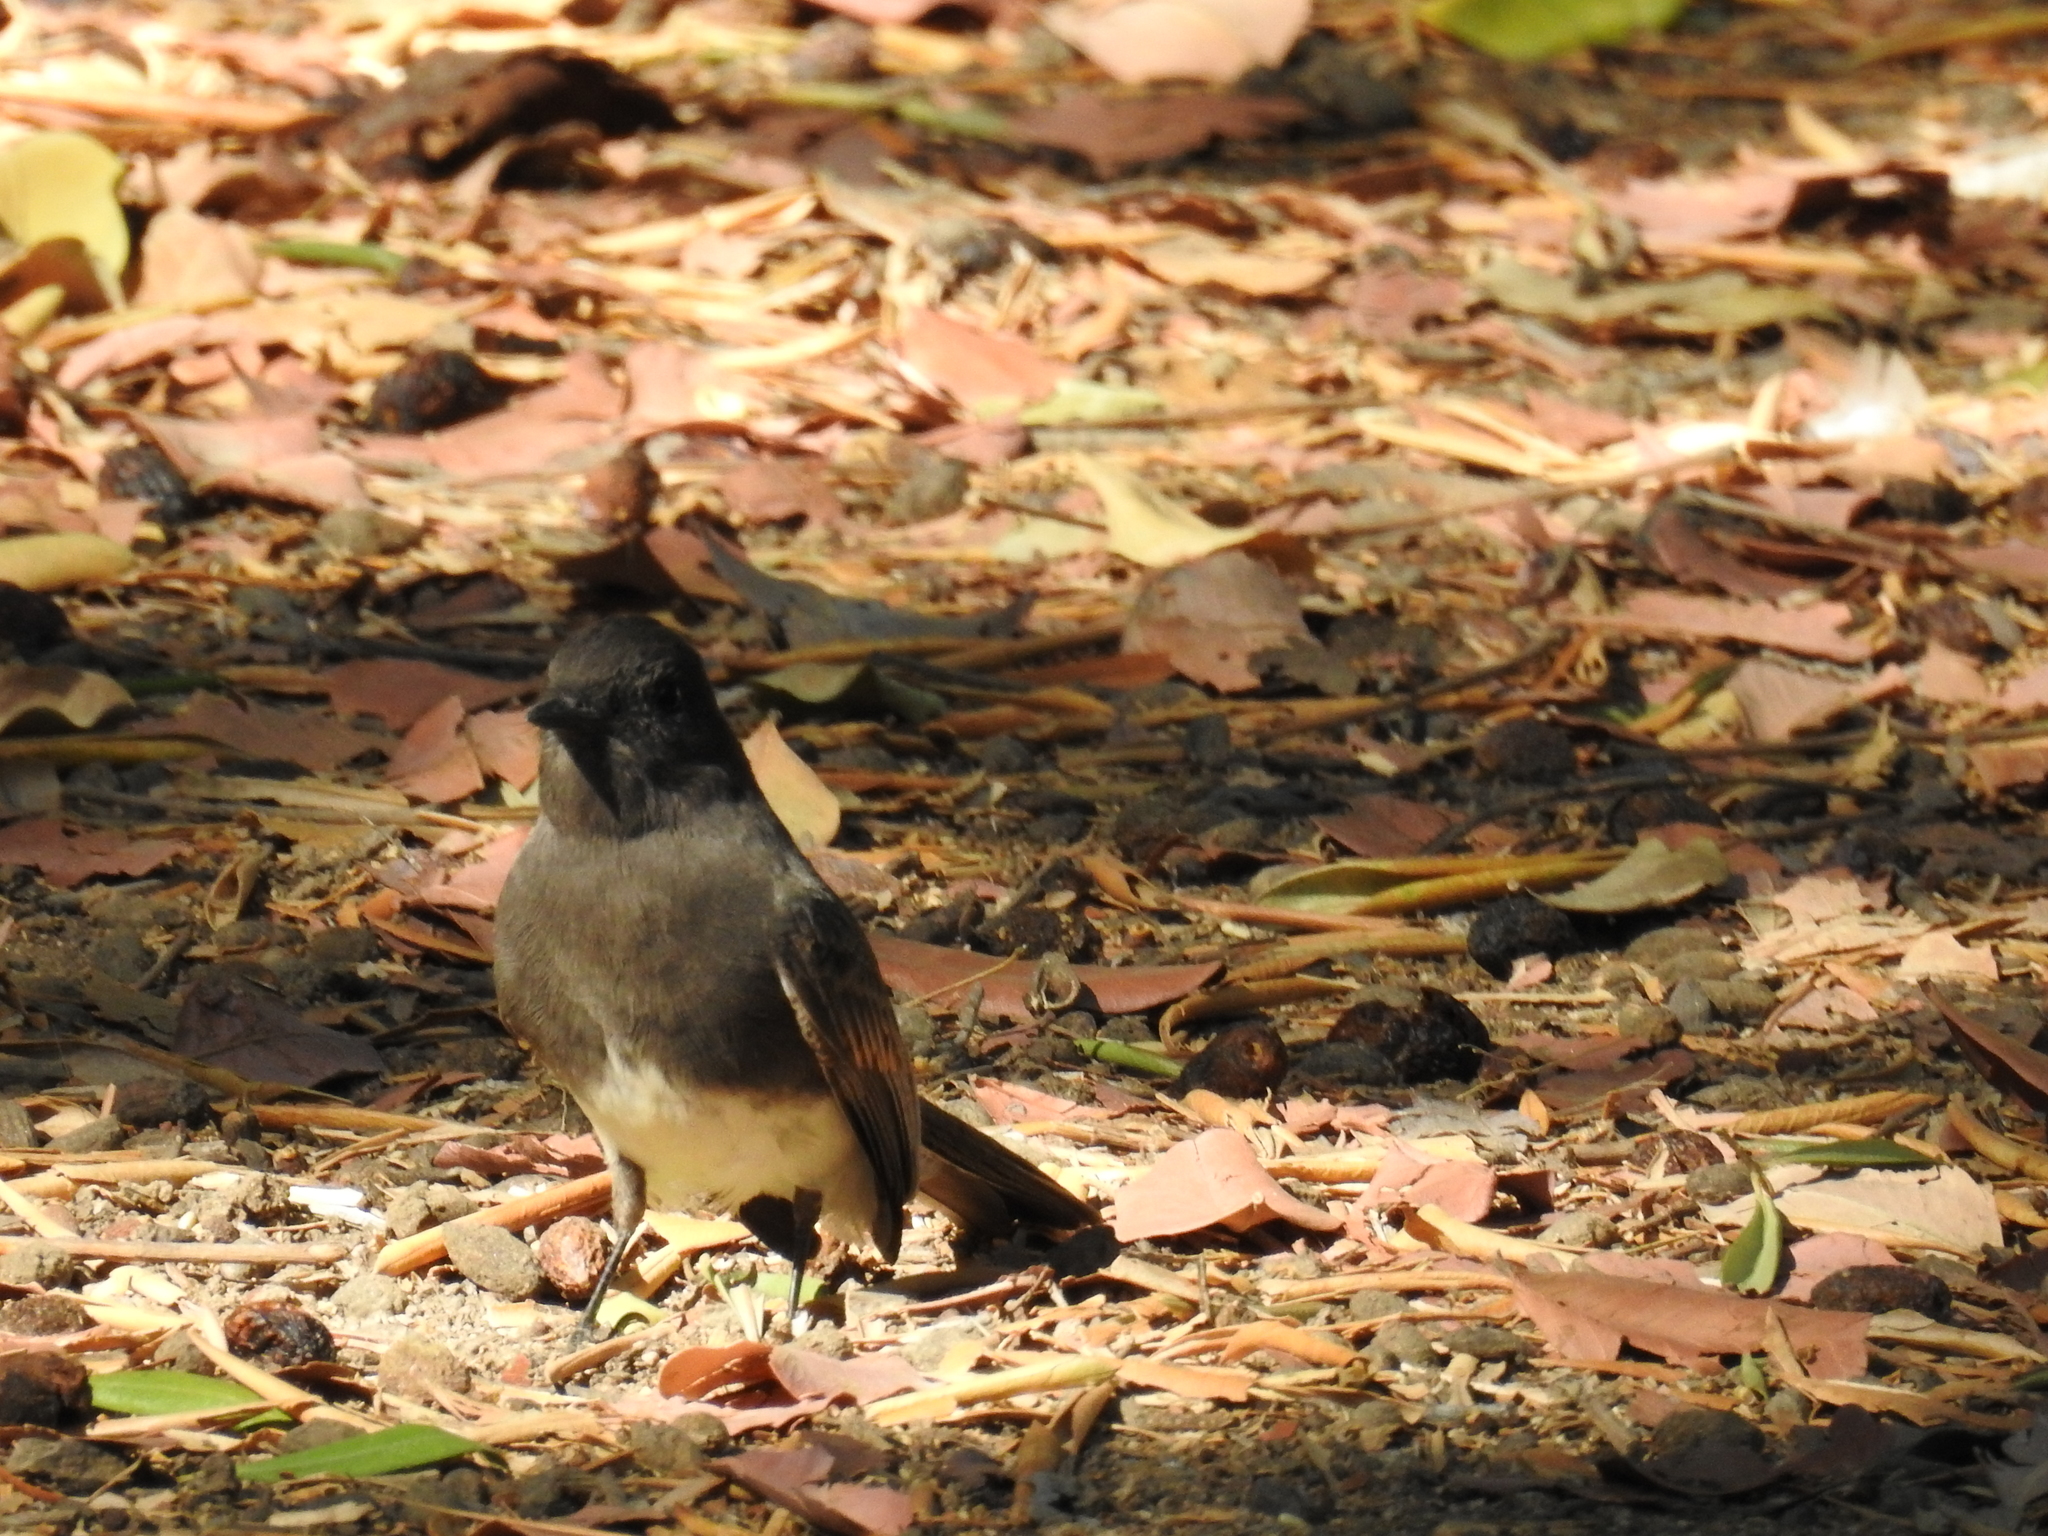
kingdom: Animalia
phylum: Chordata
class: Aves
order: Passeriformes
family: Tyrannidae
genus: Sayornis
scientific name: Sayornis nigricans
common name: Black phoebe
